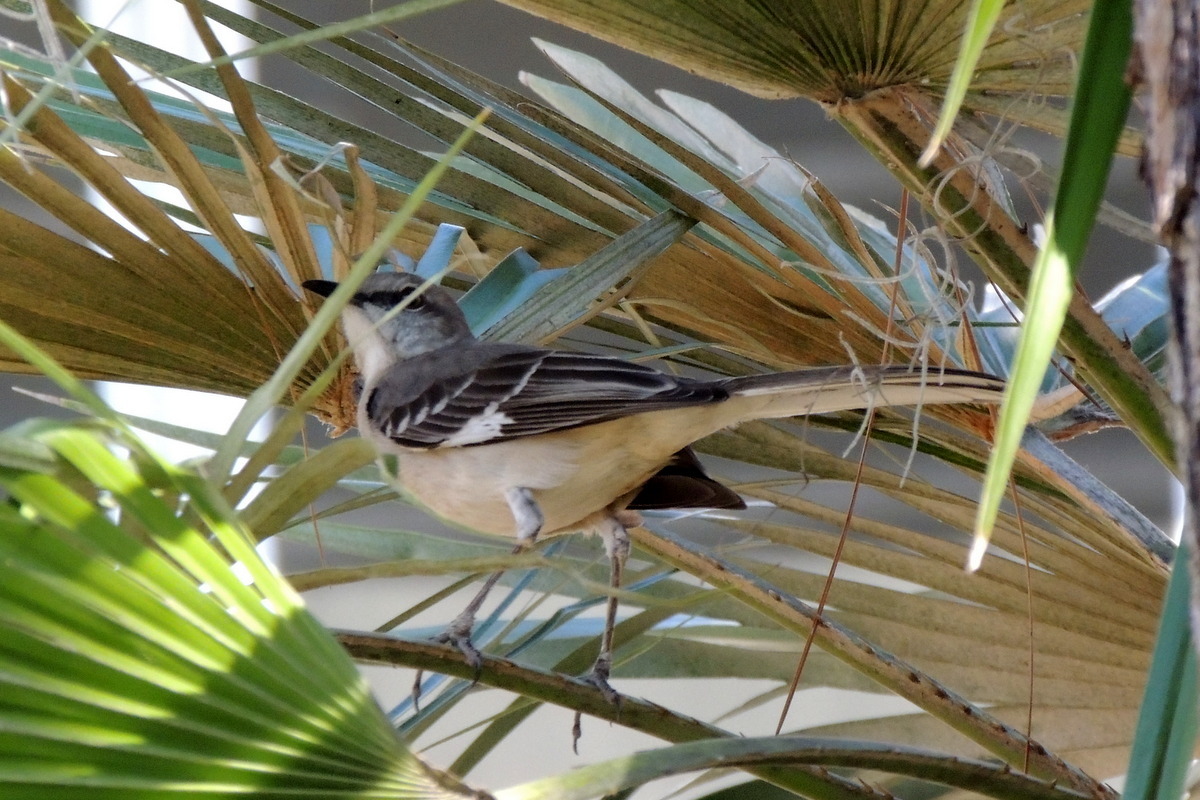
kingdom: Animalia
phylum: Chordata
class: Aves
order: Passeriformes
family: Mimidae
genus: Mimus
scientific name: Mimus polyglottos
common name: Northern mockingbird
